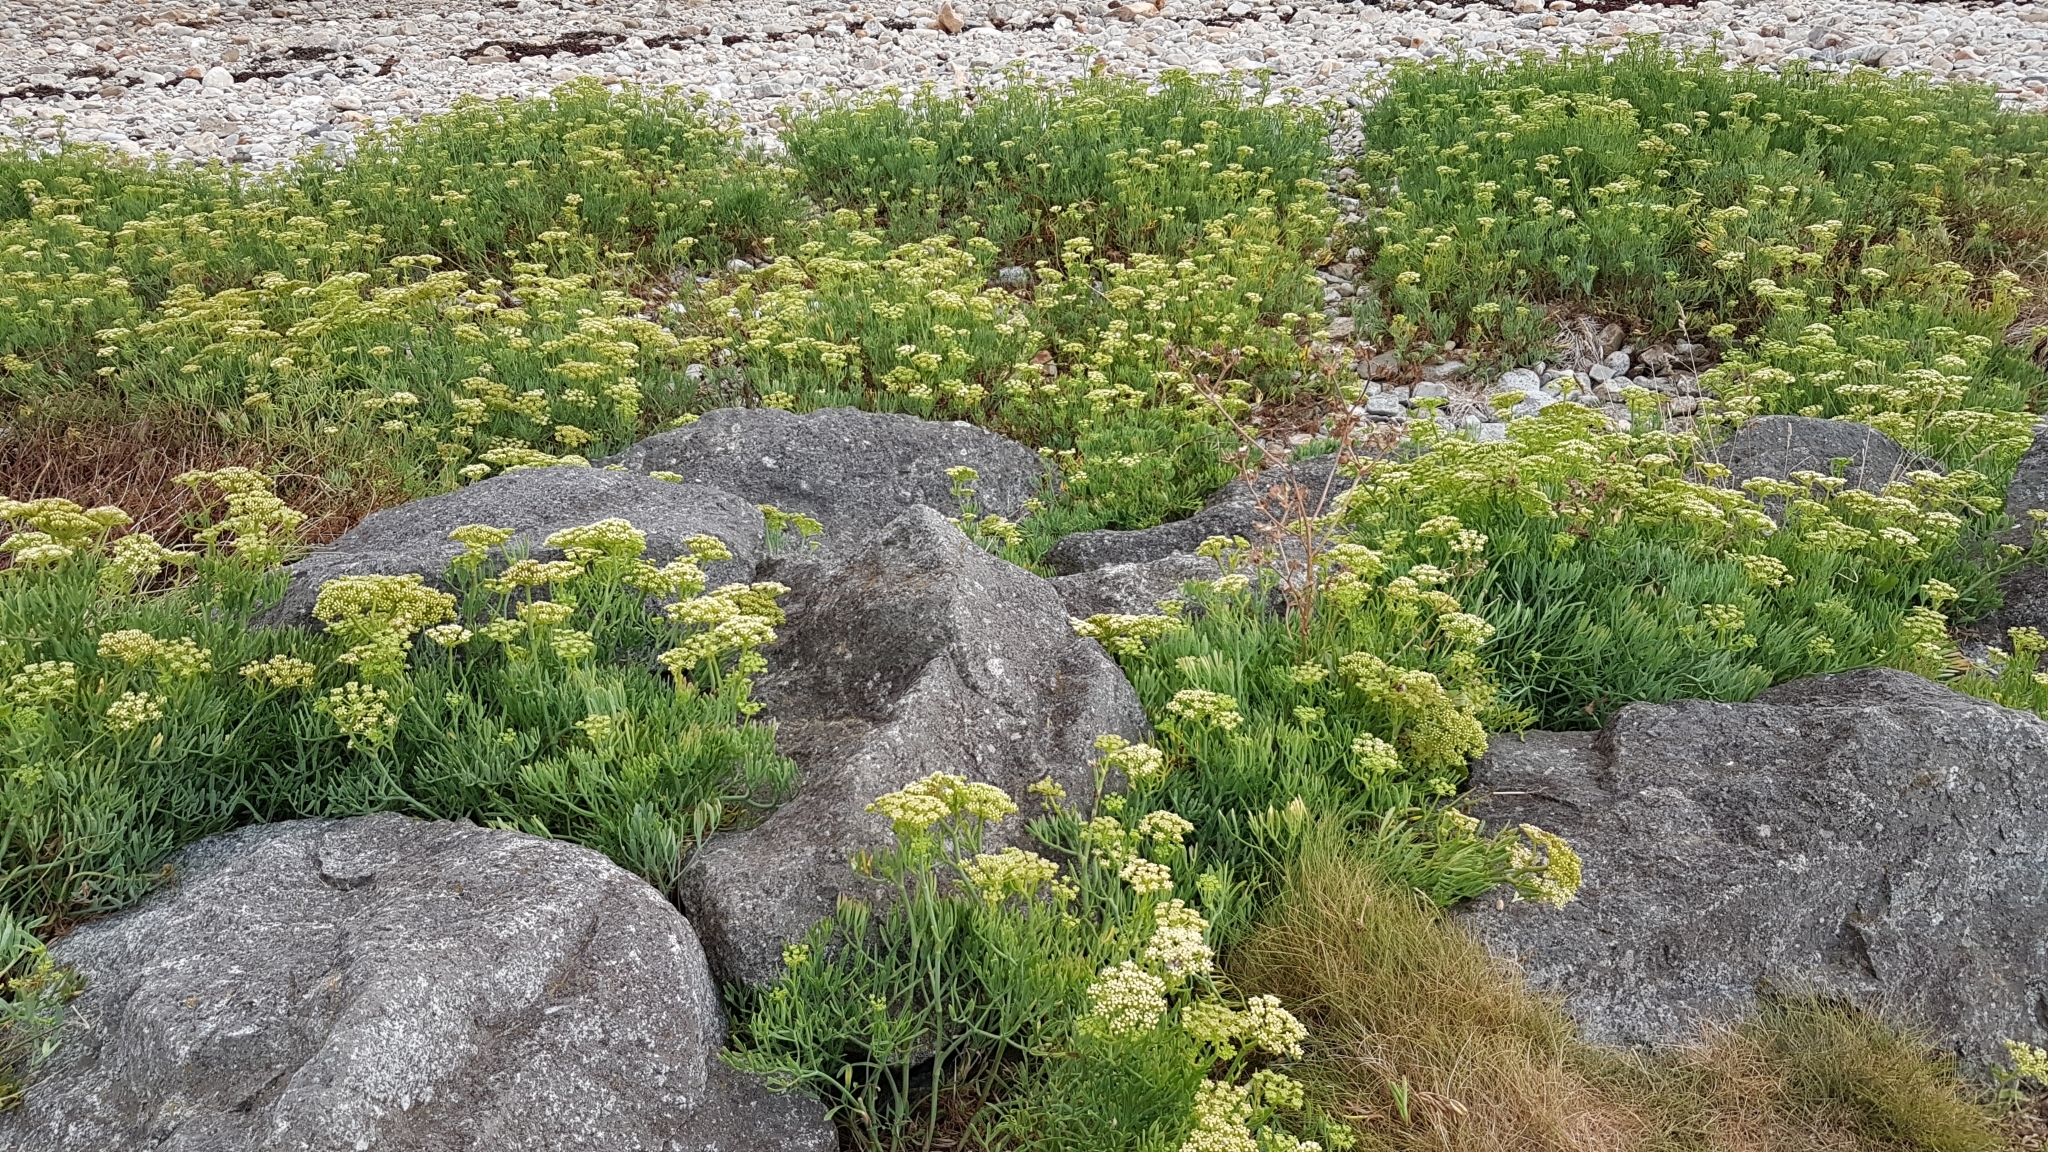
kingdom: Plantae
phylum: Tracheophyta
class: Magnoliopsida
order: Apiales
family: Apiaceae
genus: Crithmum
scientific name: Crithmum maritimum
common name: Rock samphire
